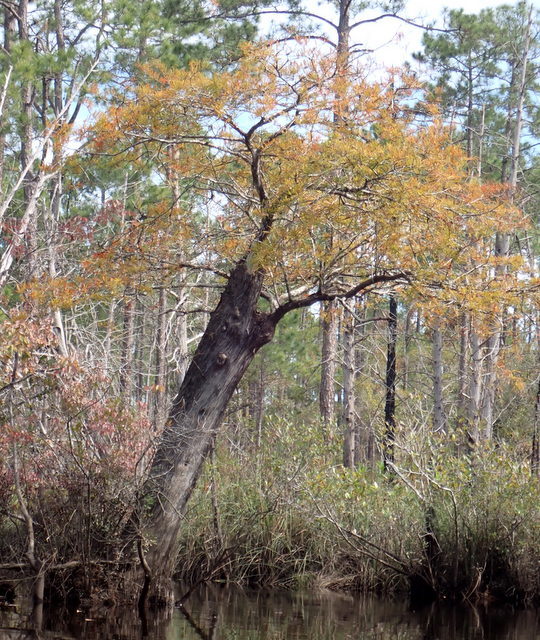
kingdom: Plantae
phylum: Tracheophyta
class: Pinopsida
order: Pinales
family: Cupressaceae
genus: Taxodium
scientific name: Taxodium distichum
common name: Bald cypress
